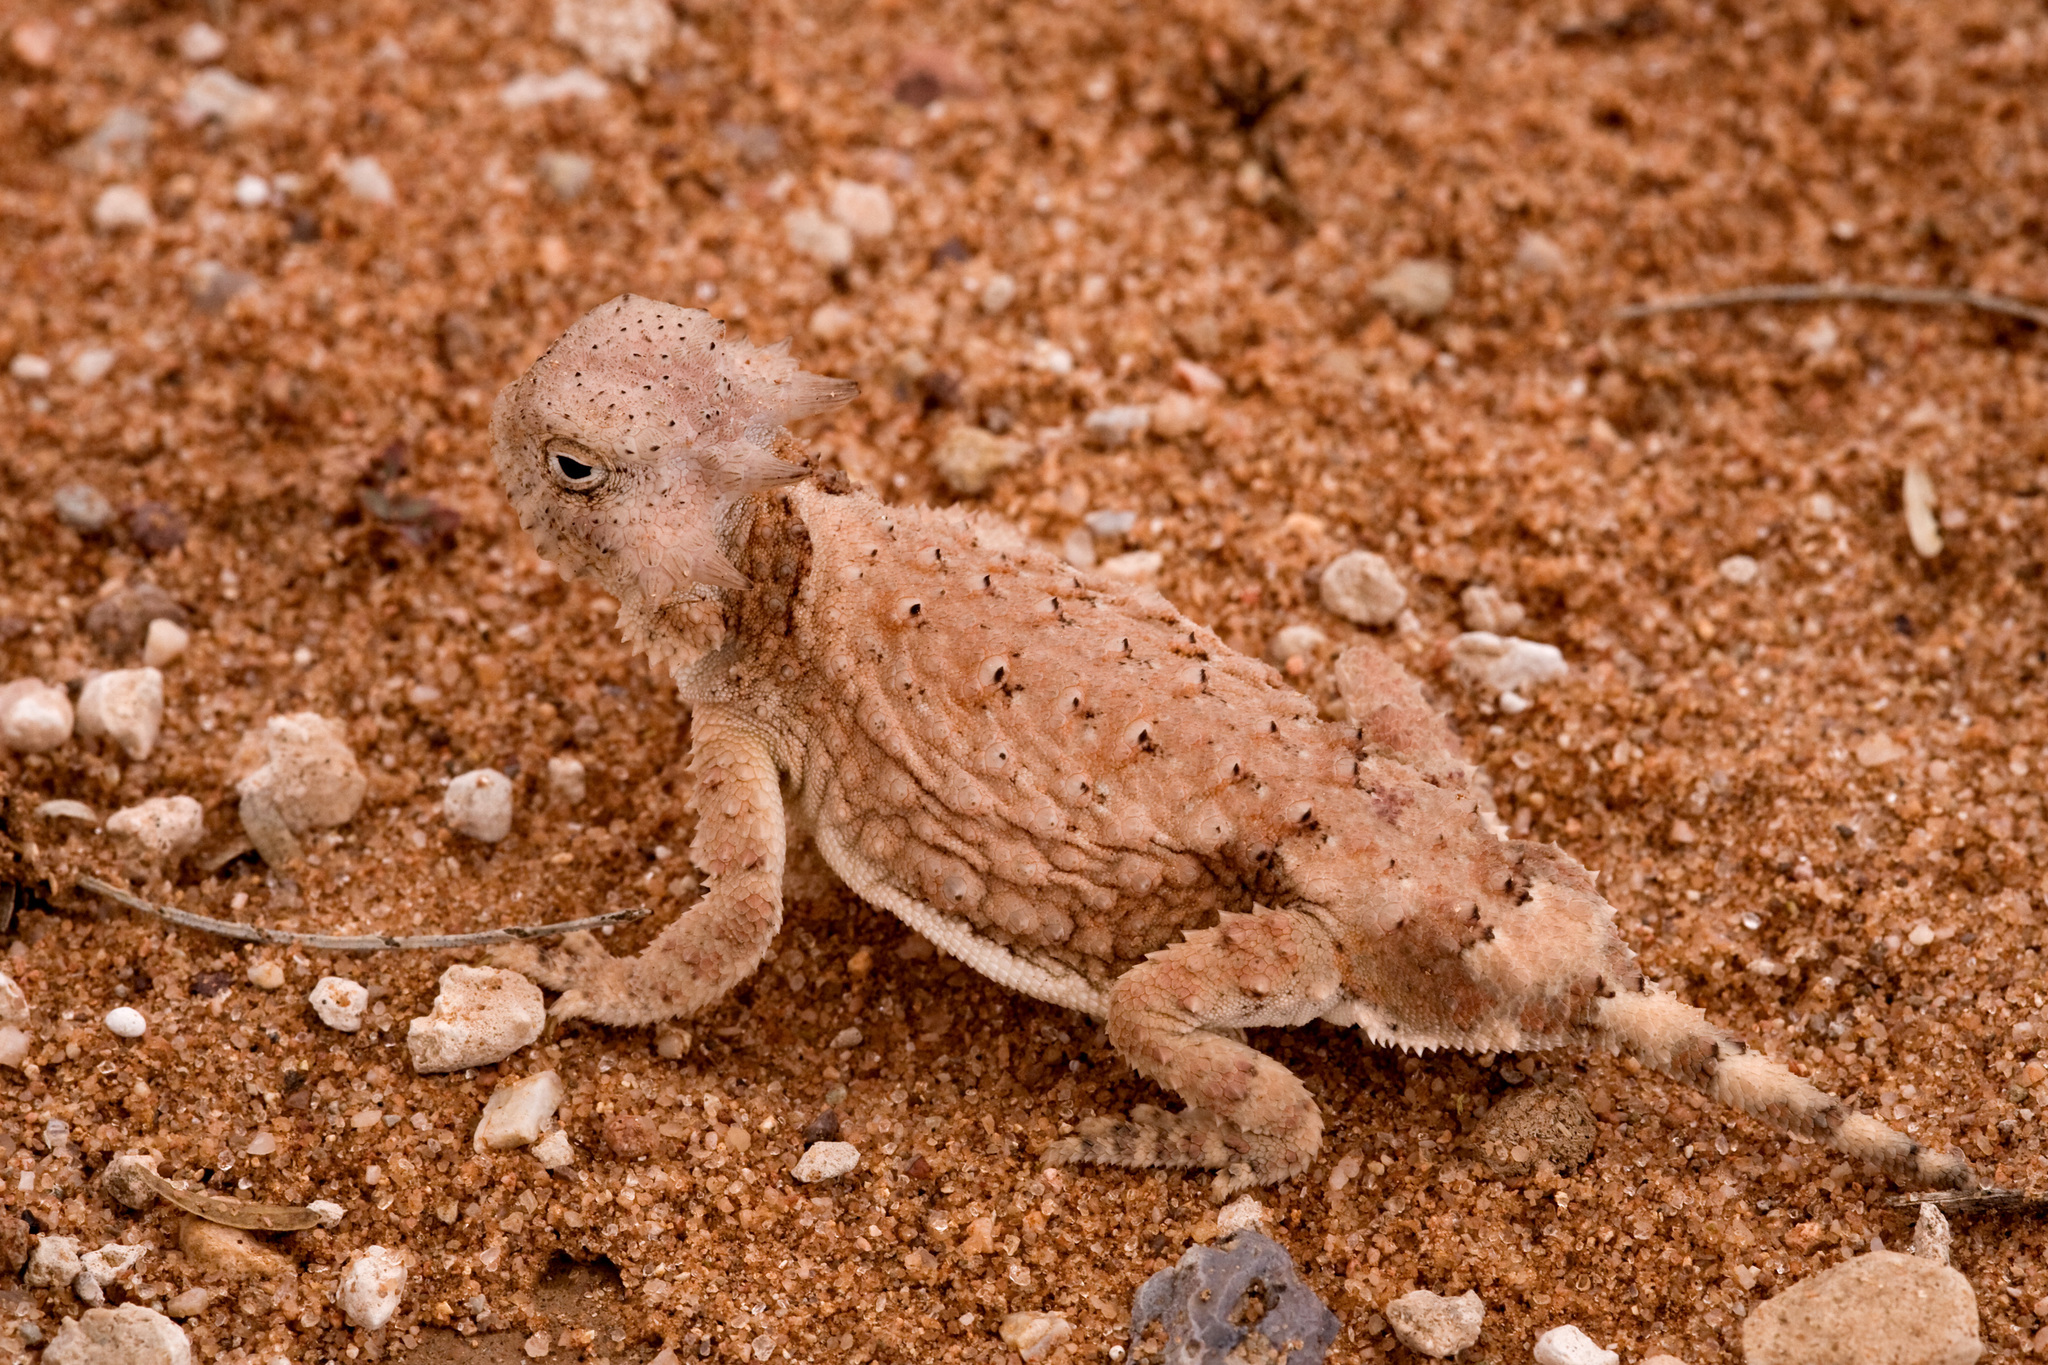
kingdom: Animalia
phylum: Chordata
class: Squamata
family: Phrynosomatidae
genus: Phrynosoma
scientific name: Phrynosoma modestum
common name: Roundtail horned lizard
